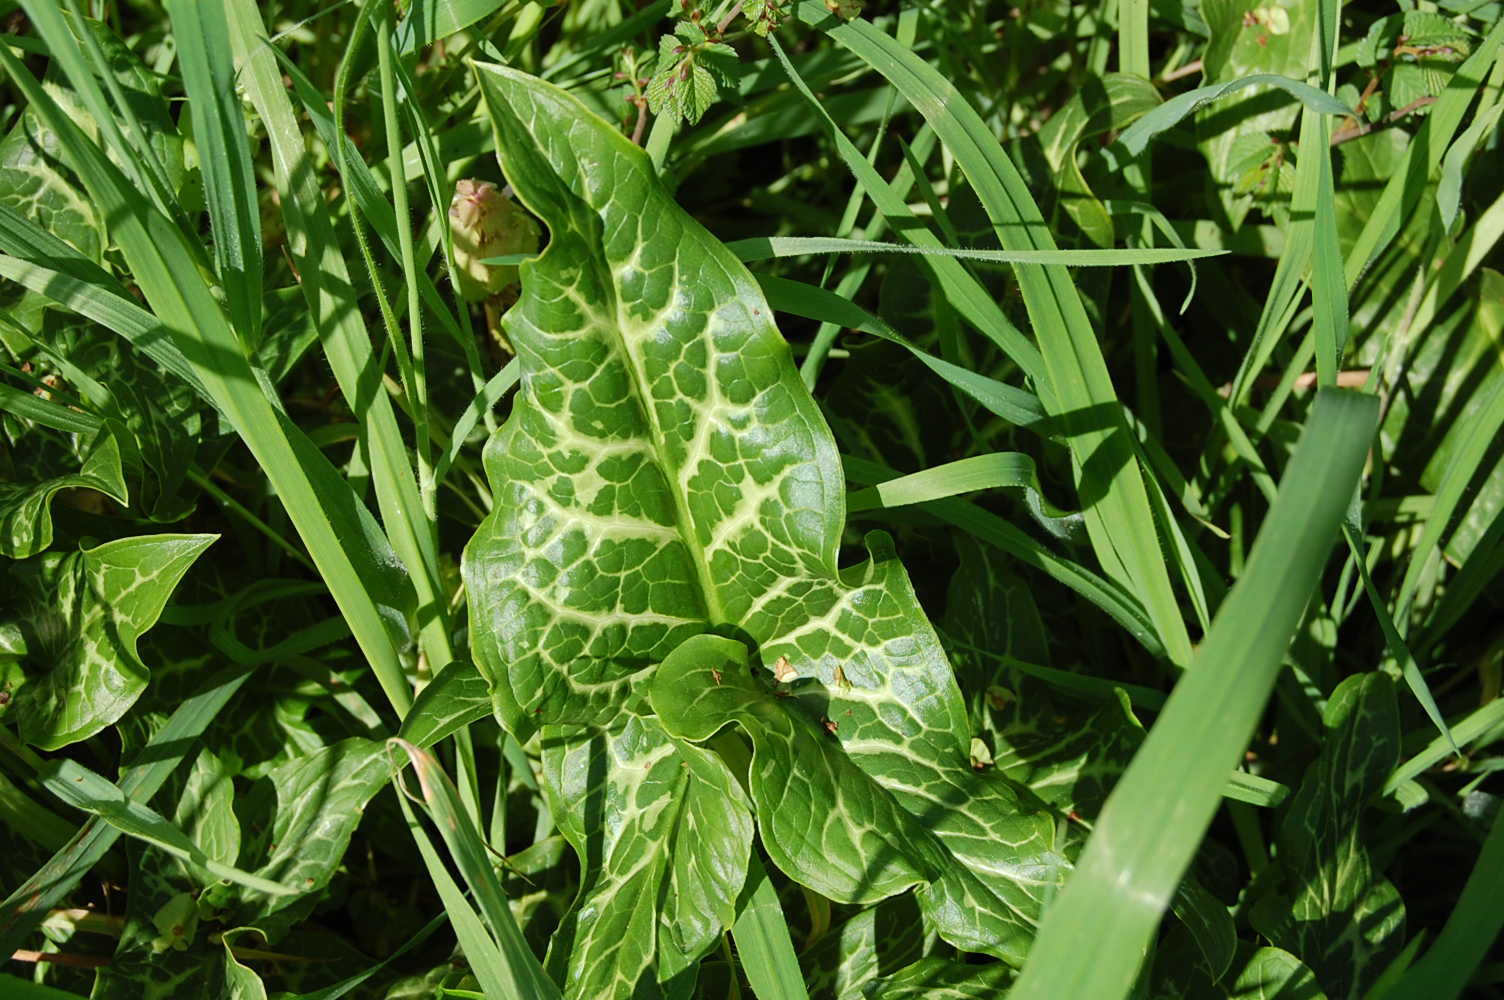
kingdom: Plantae
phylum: Tracheophyta
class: Liliopsida
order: Alismatales
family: Araceae
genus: Arum
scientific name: Arum italicum
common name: Italian lords-and-ladies
